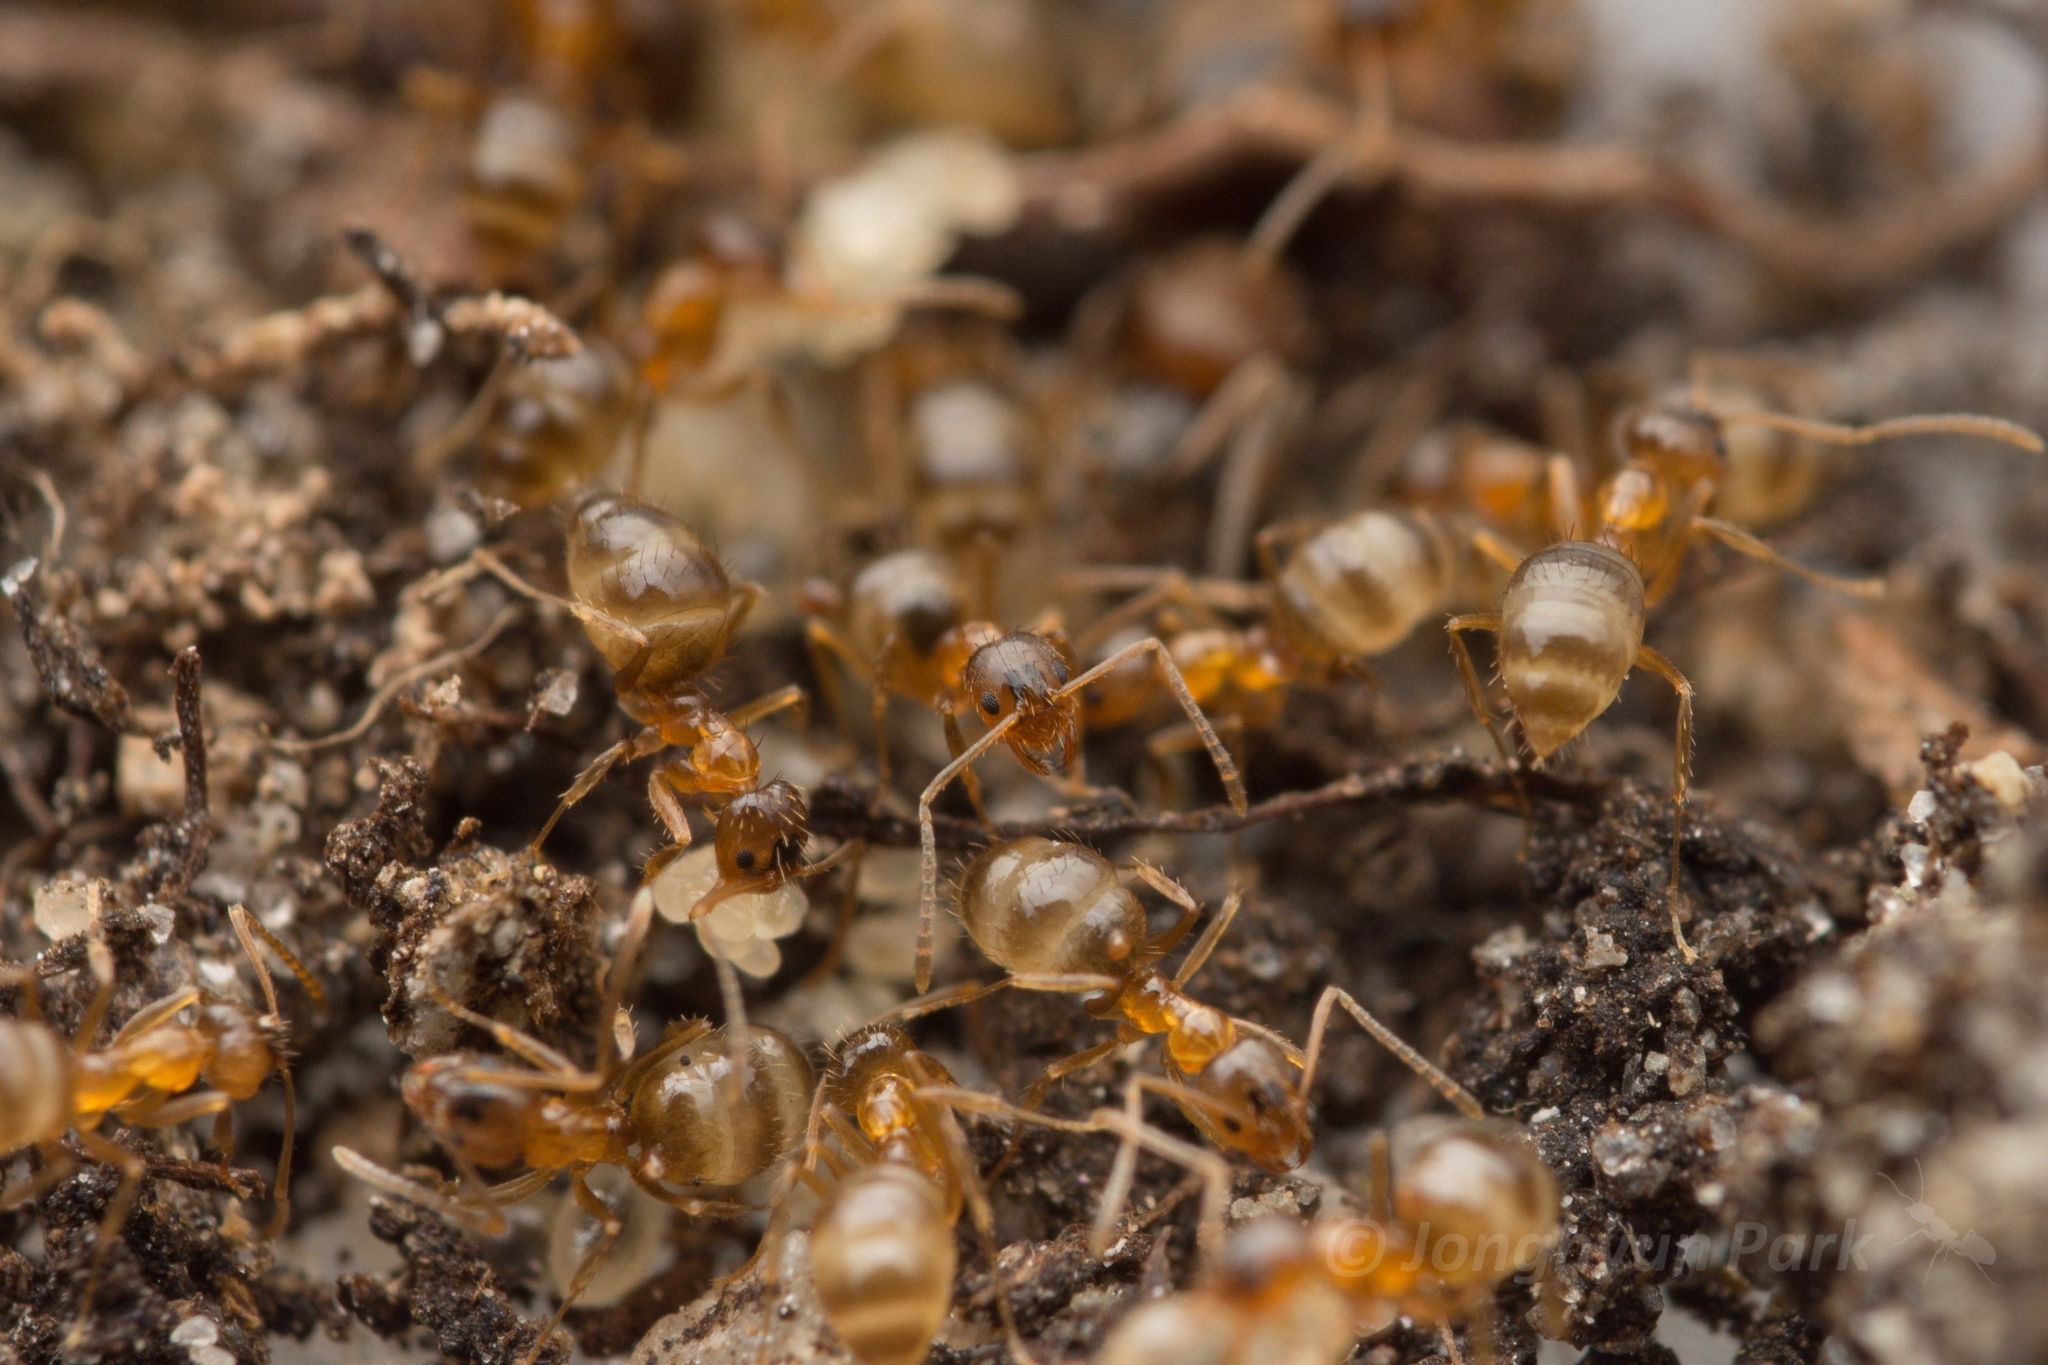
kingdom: Animalia
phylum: Arthropoda
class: Insecta
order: Hymenoptera
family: Formicidae
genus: Paratrechina
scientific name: Paratrechina flavipes
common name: Eastern asian formicine ant
